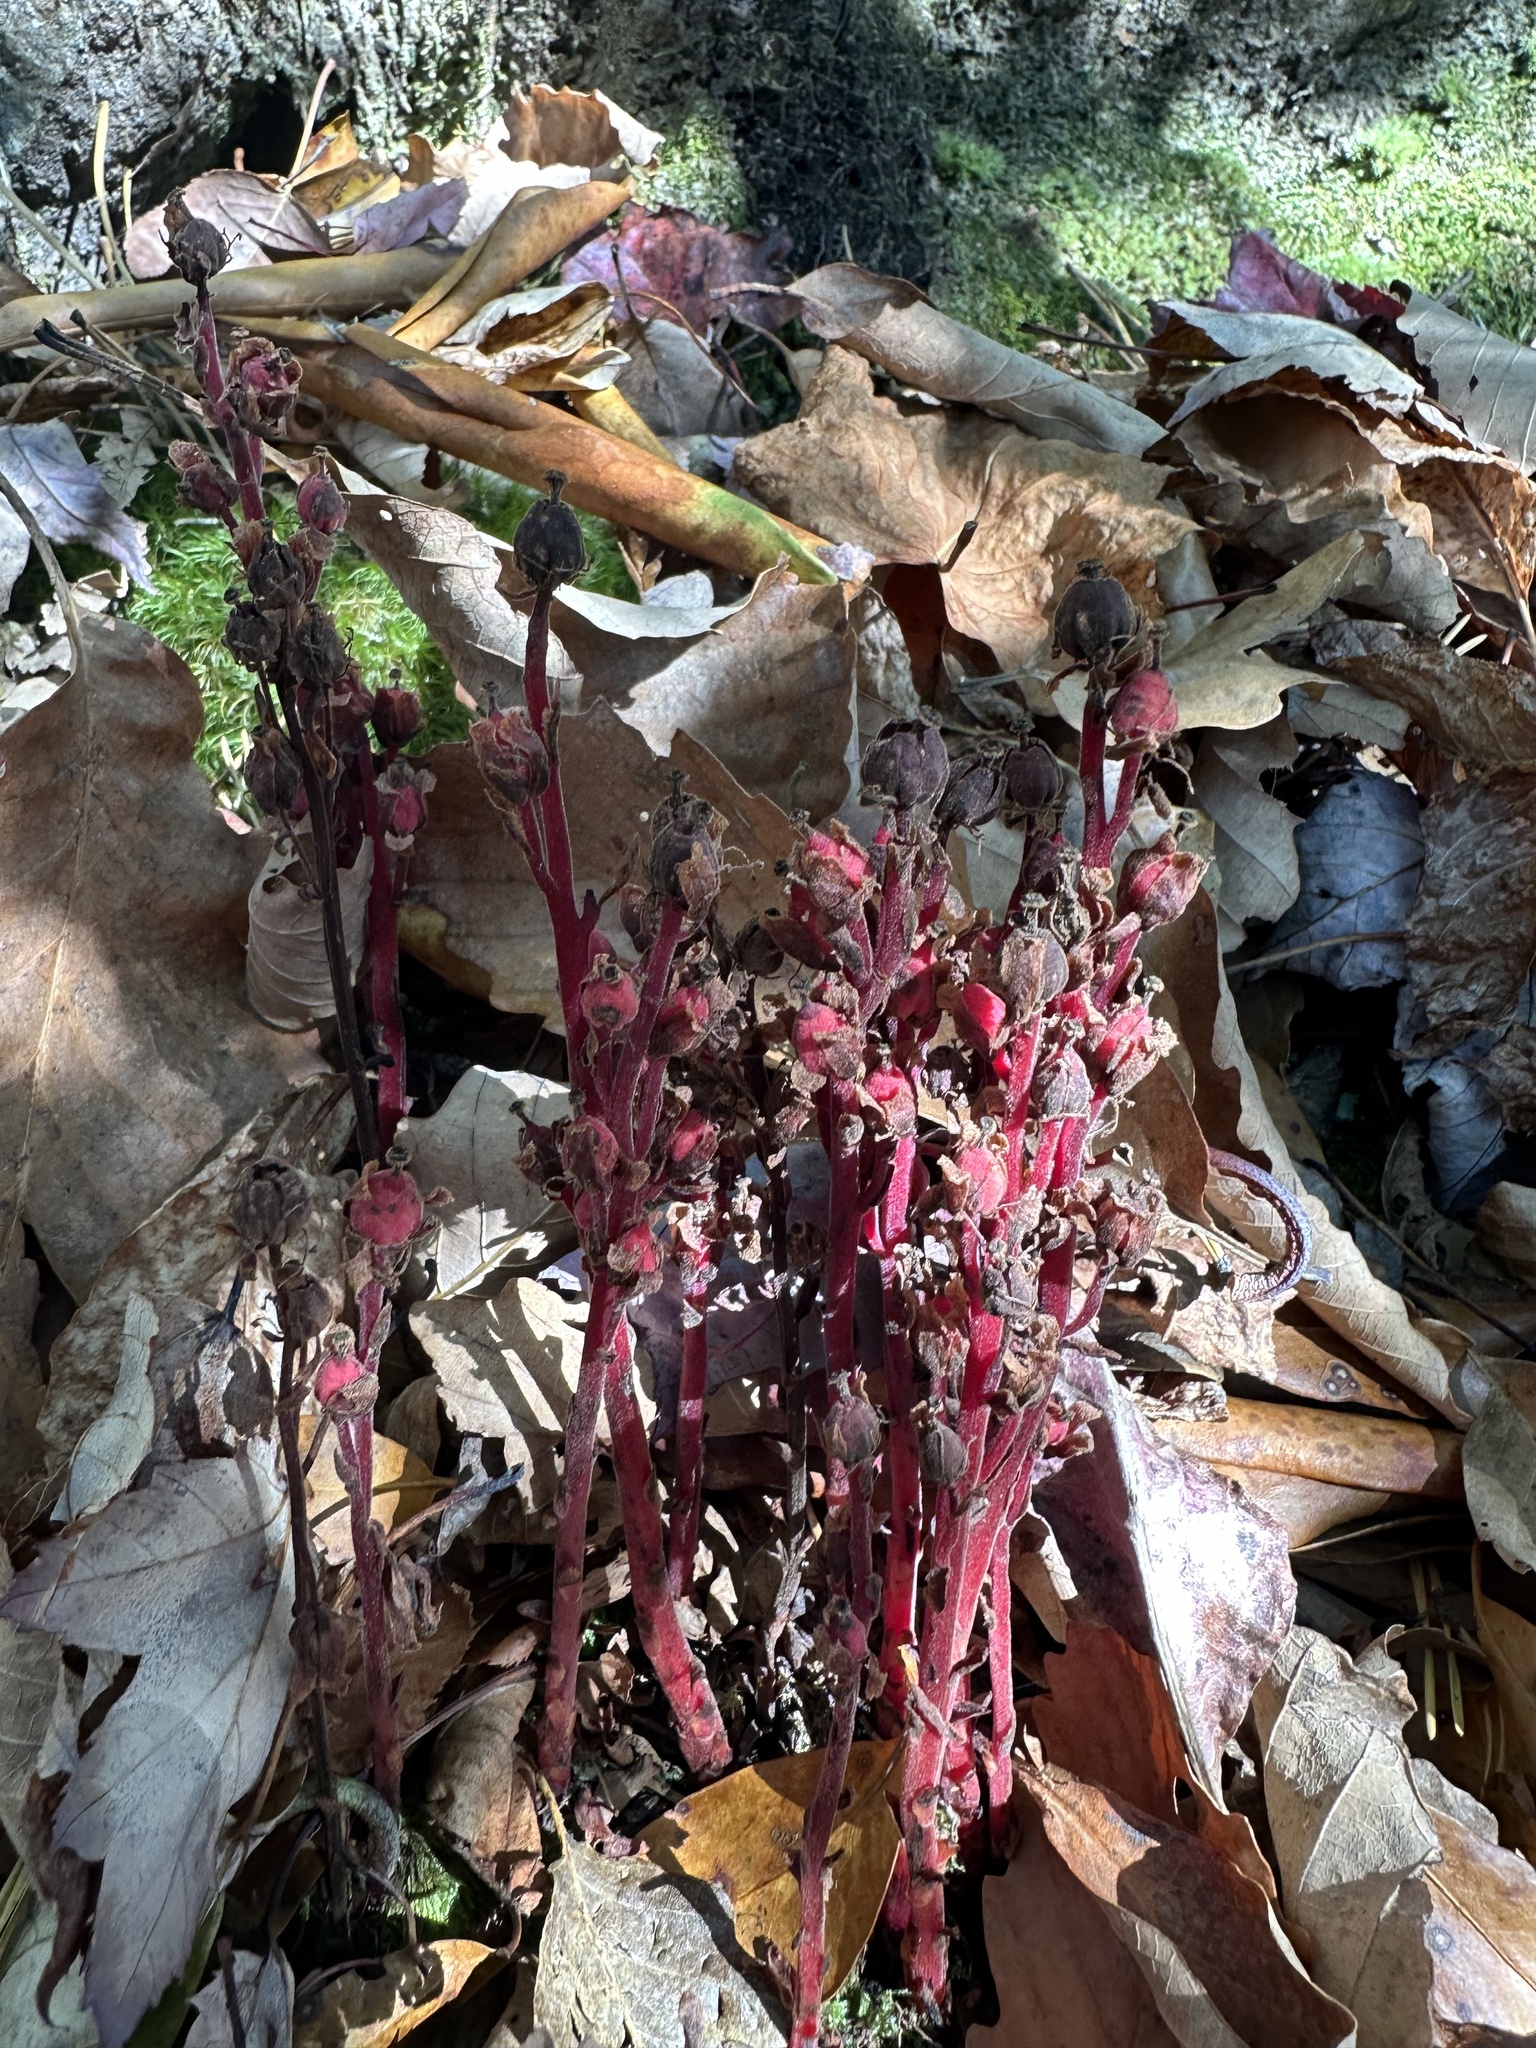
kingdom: Plantae
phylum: Tracheophyta
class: Magnoliopsida
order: Ericales
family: Ericaceae
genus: Hypopitys
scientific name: Hypopitys monotropa
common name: Yellow bird's-nest
